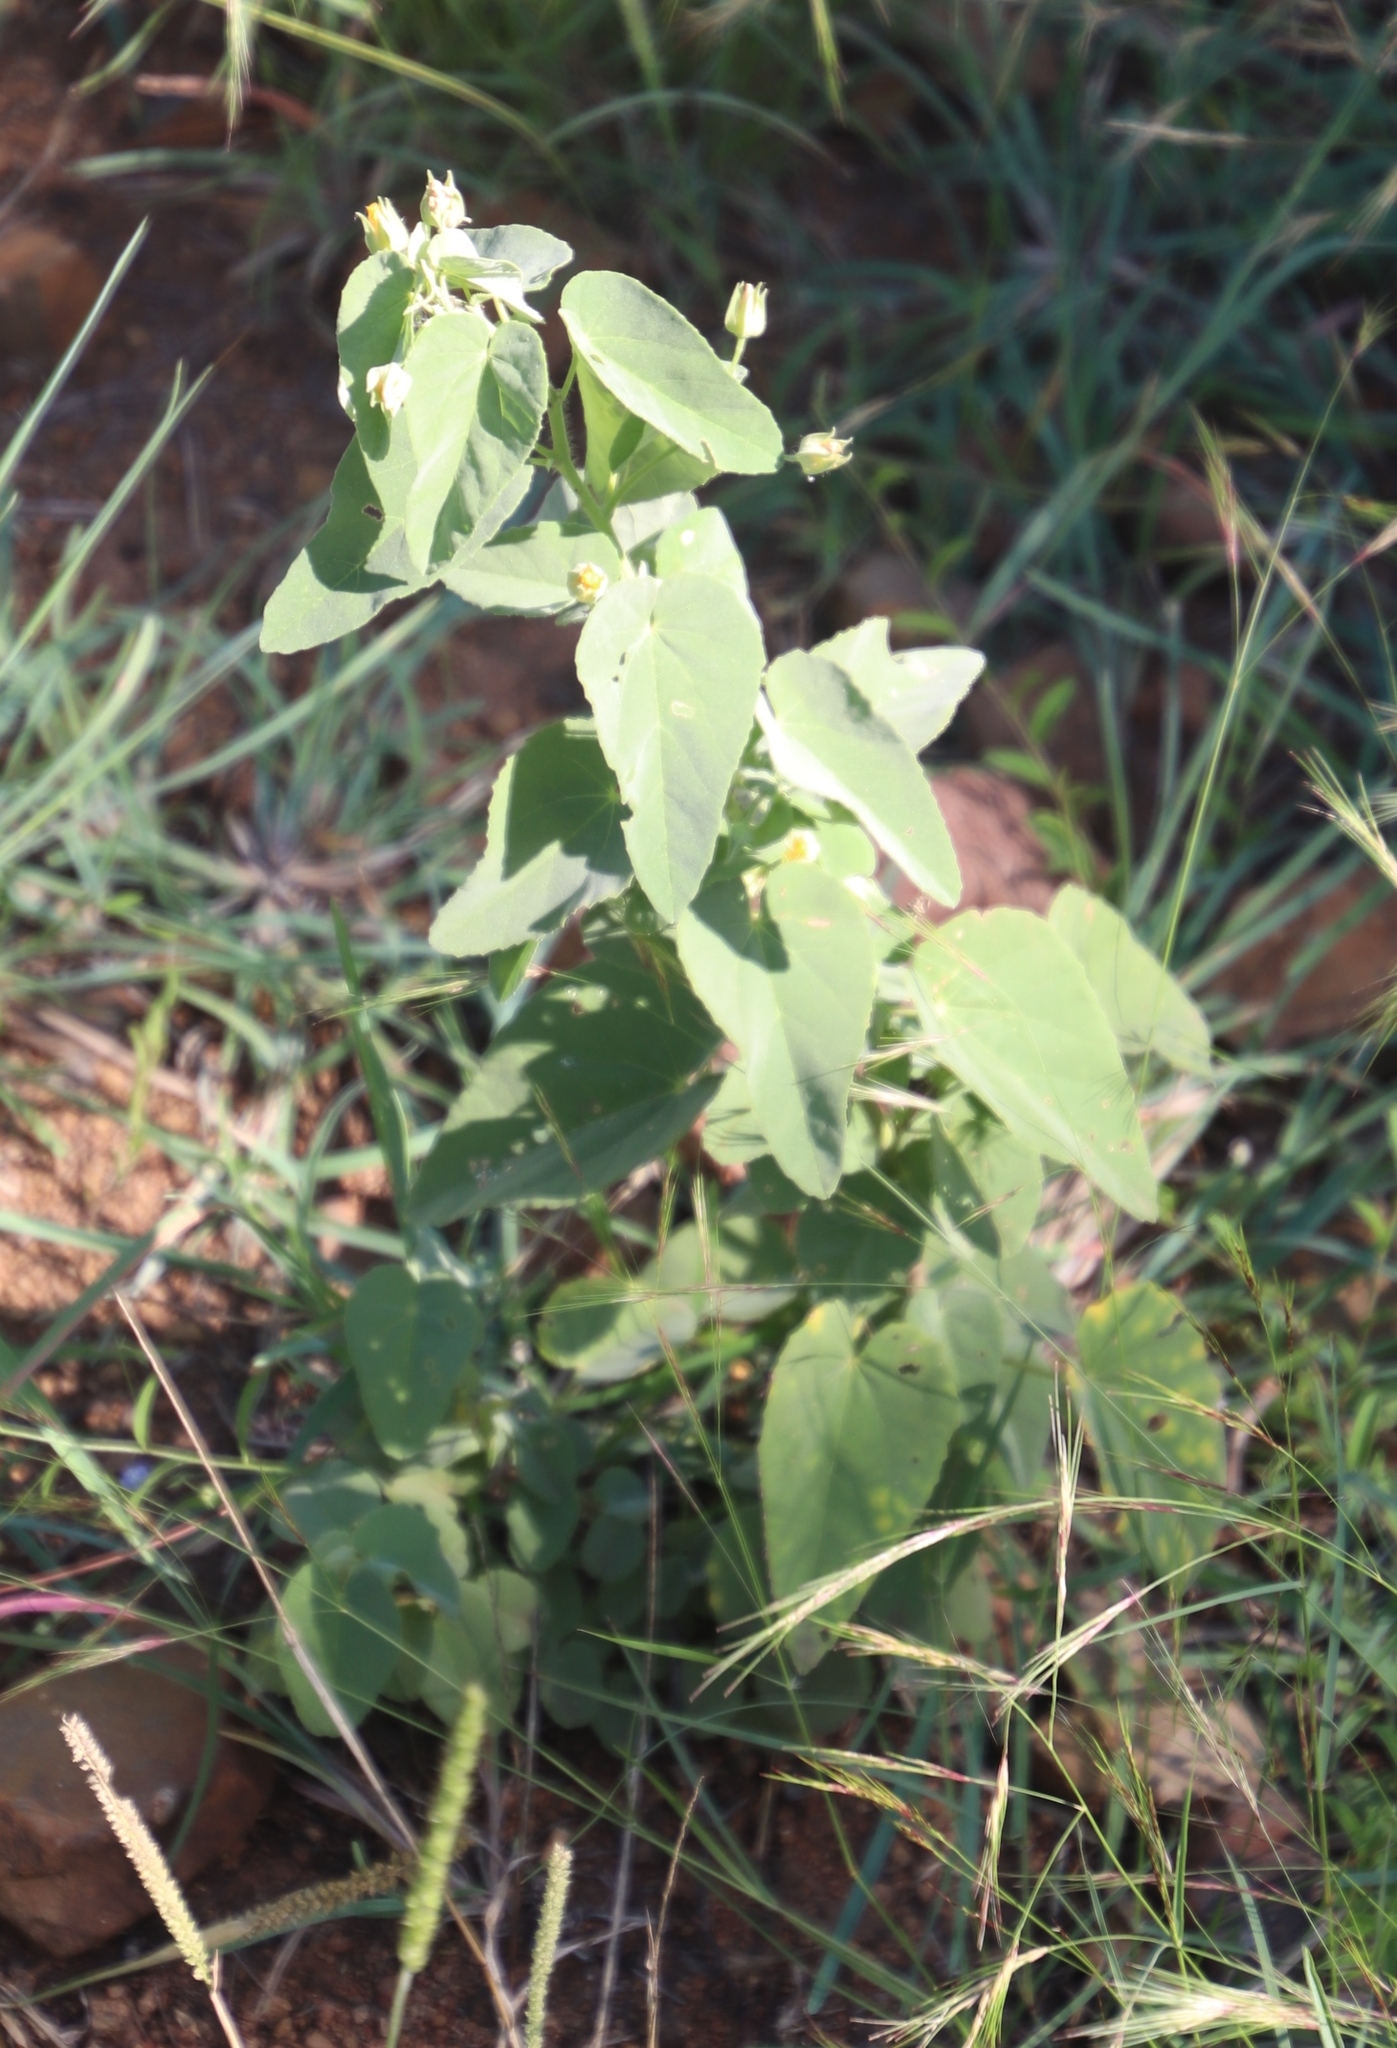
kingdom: Plantae
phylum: Tracheophyta
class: Magnoliopsida
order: Malvales
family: Malvaceae
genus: Abutilon
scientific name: Abutilon angulatum
